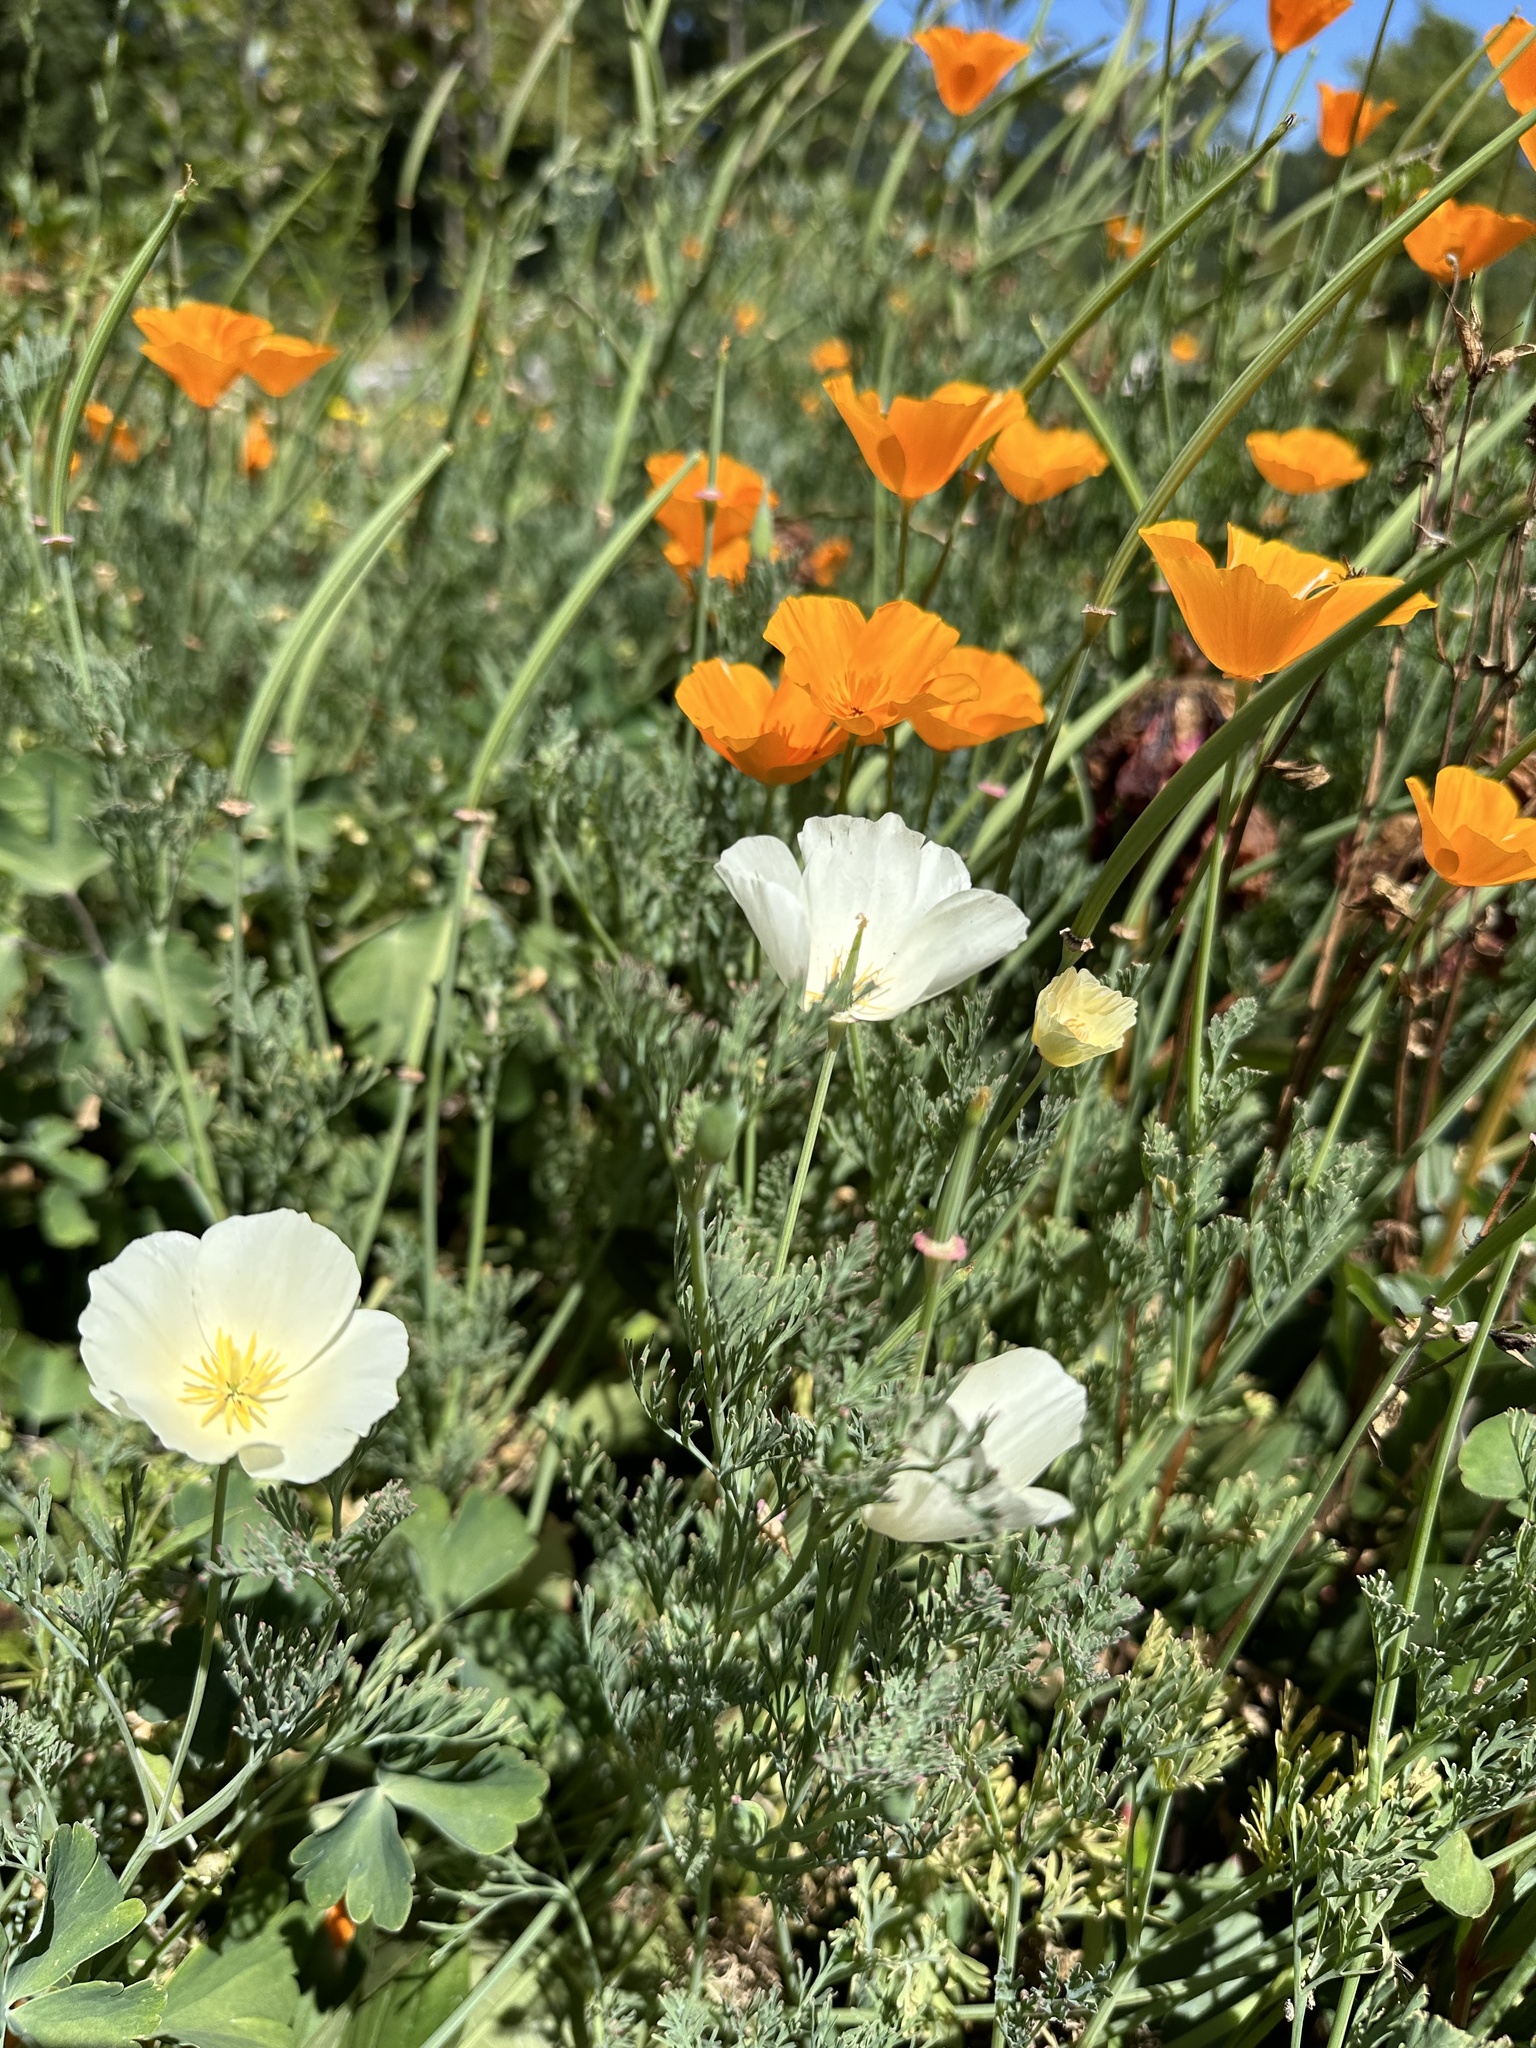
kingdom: Plantae
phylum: Tracheophyta
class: Magnoliopsida
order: Ranunculales
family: Papaveraceae
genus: Eschscholzia
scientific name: Eschscholzia californica
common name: California poppy
